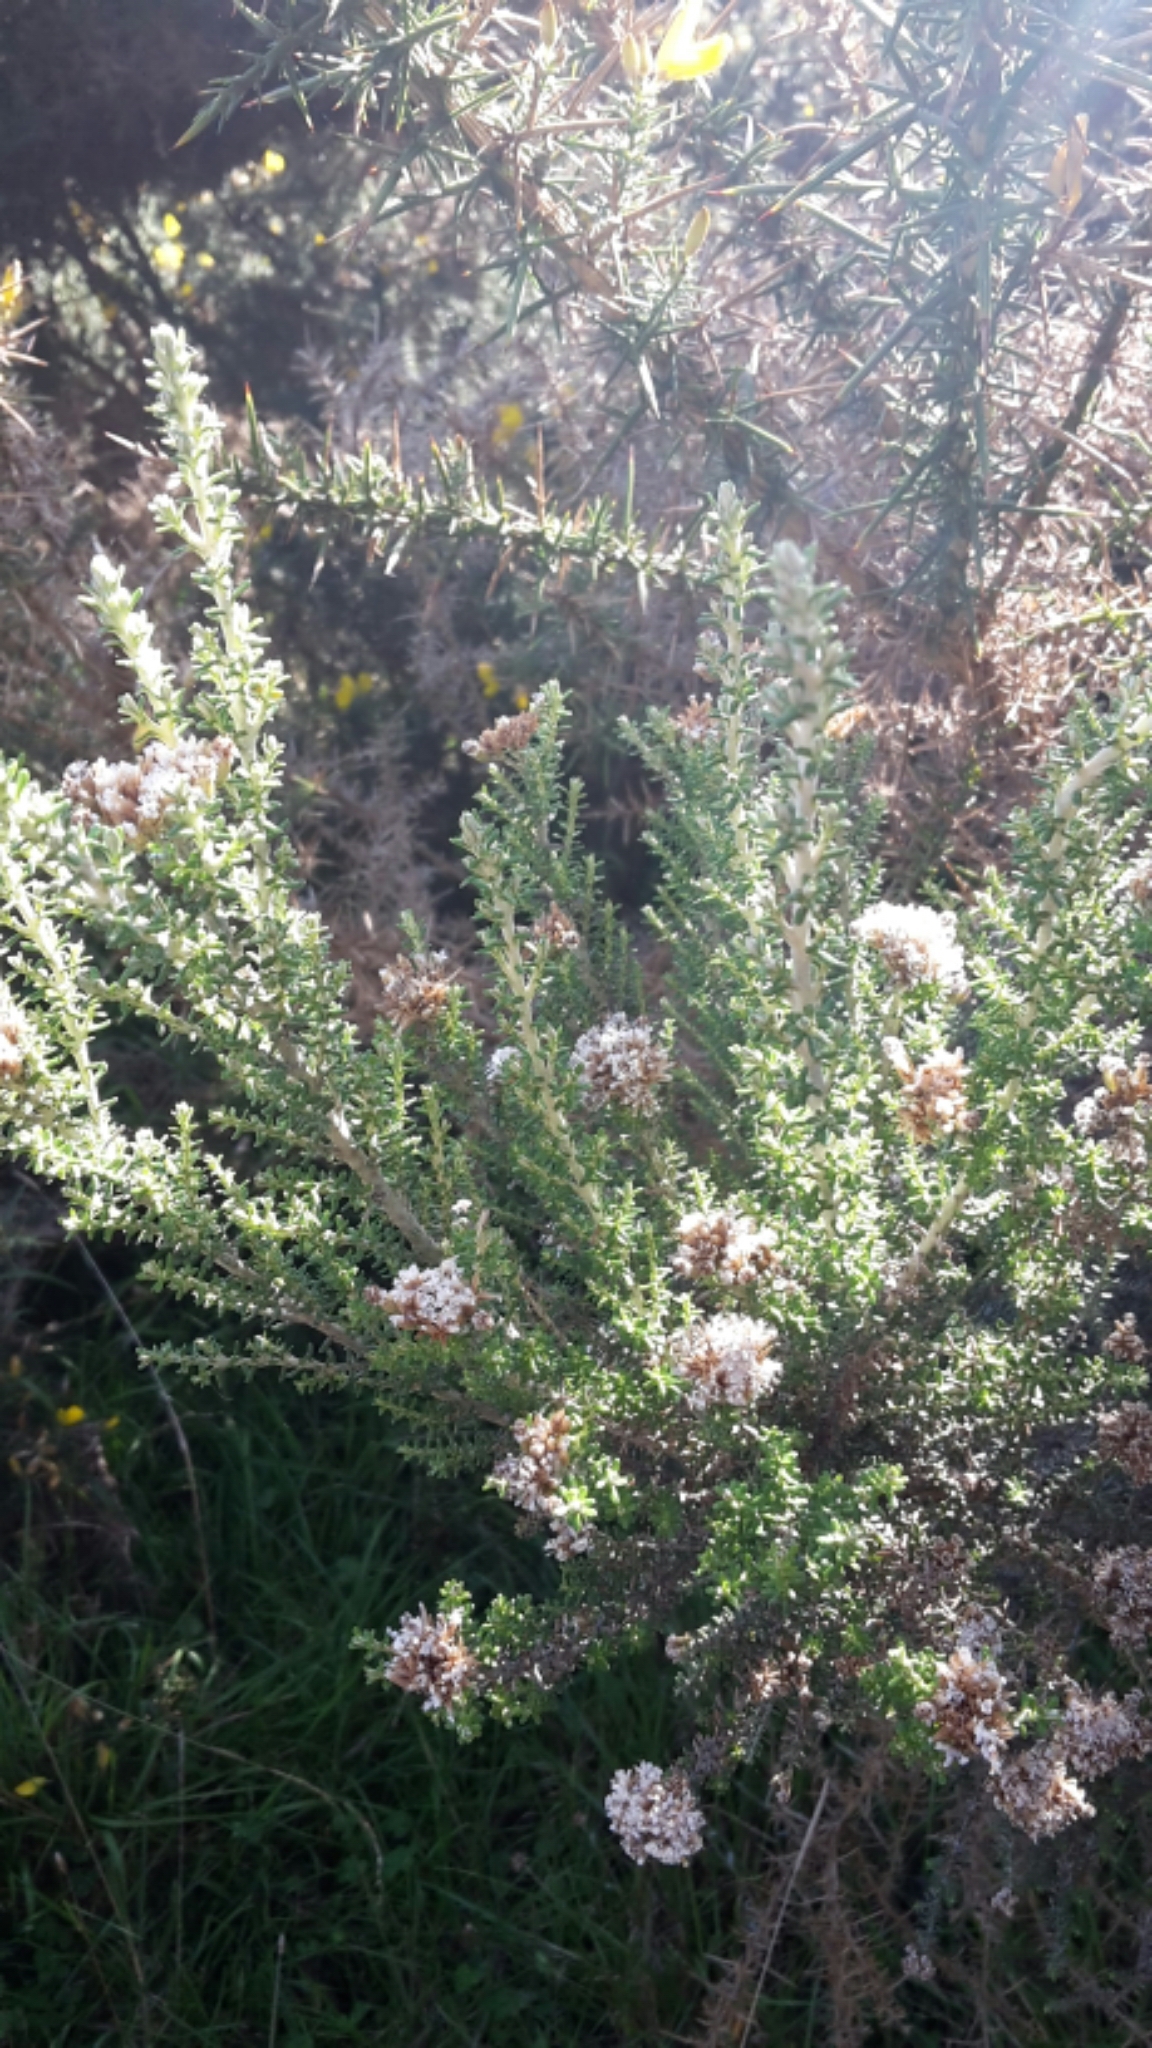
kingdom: Plantae
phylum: Tracheophyta
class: Magnoliopsida
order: Asterales
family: Asteraceae
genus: Ozothamnus
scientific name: Ozothamnus leptophyllus
